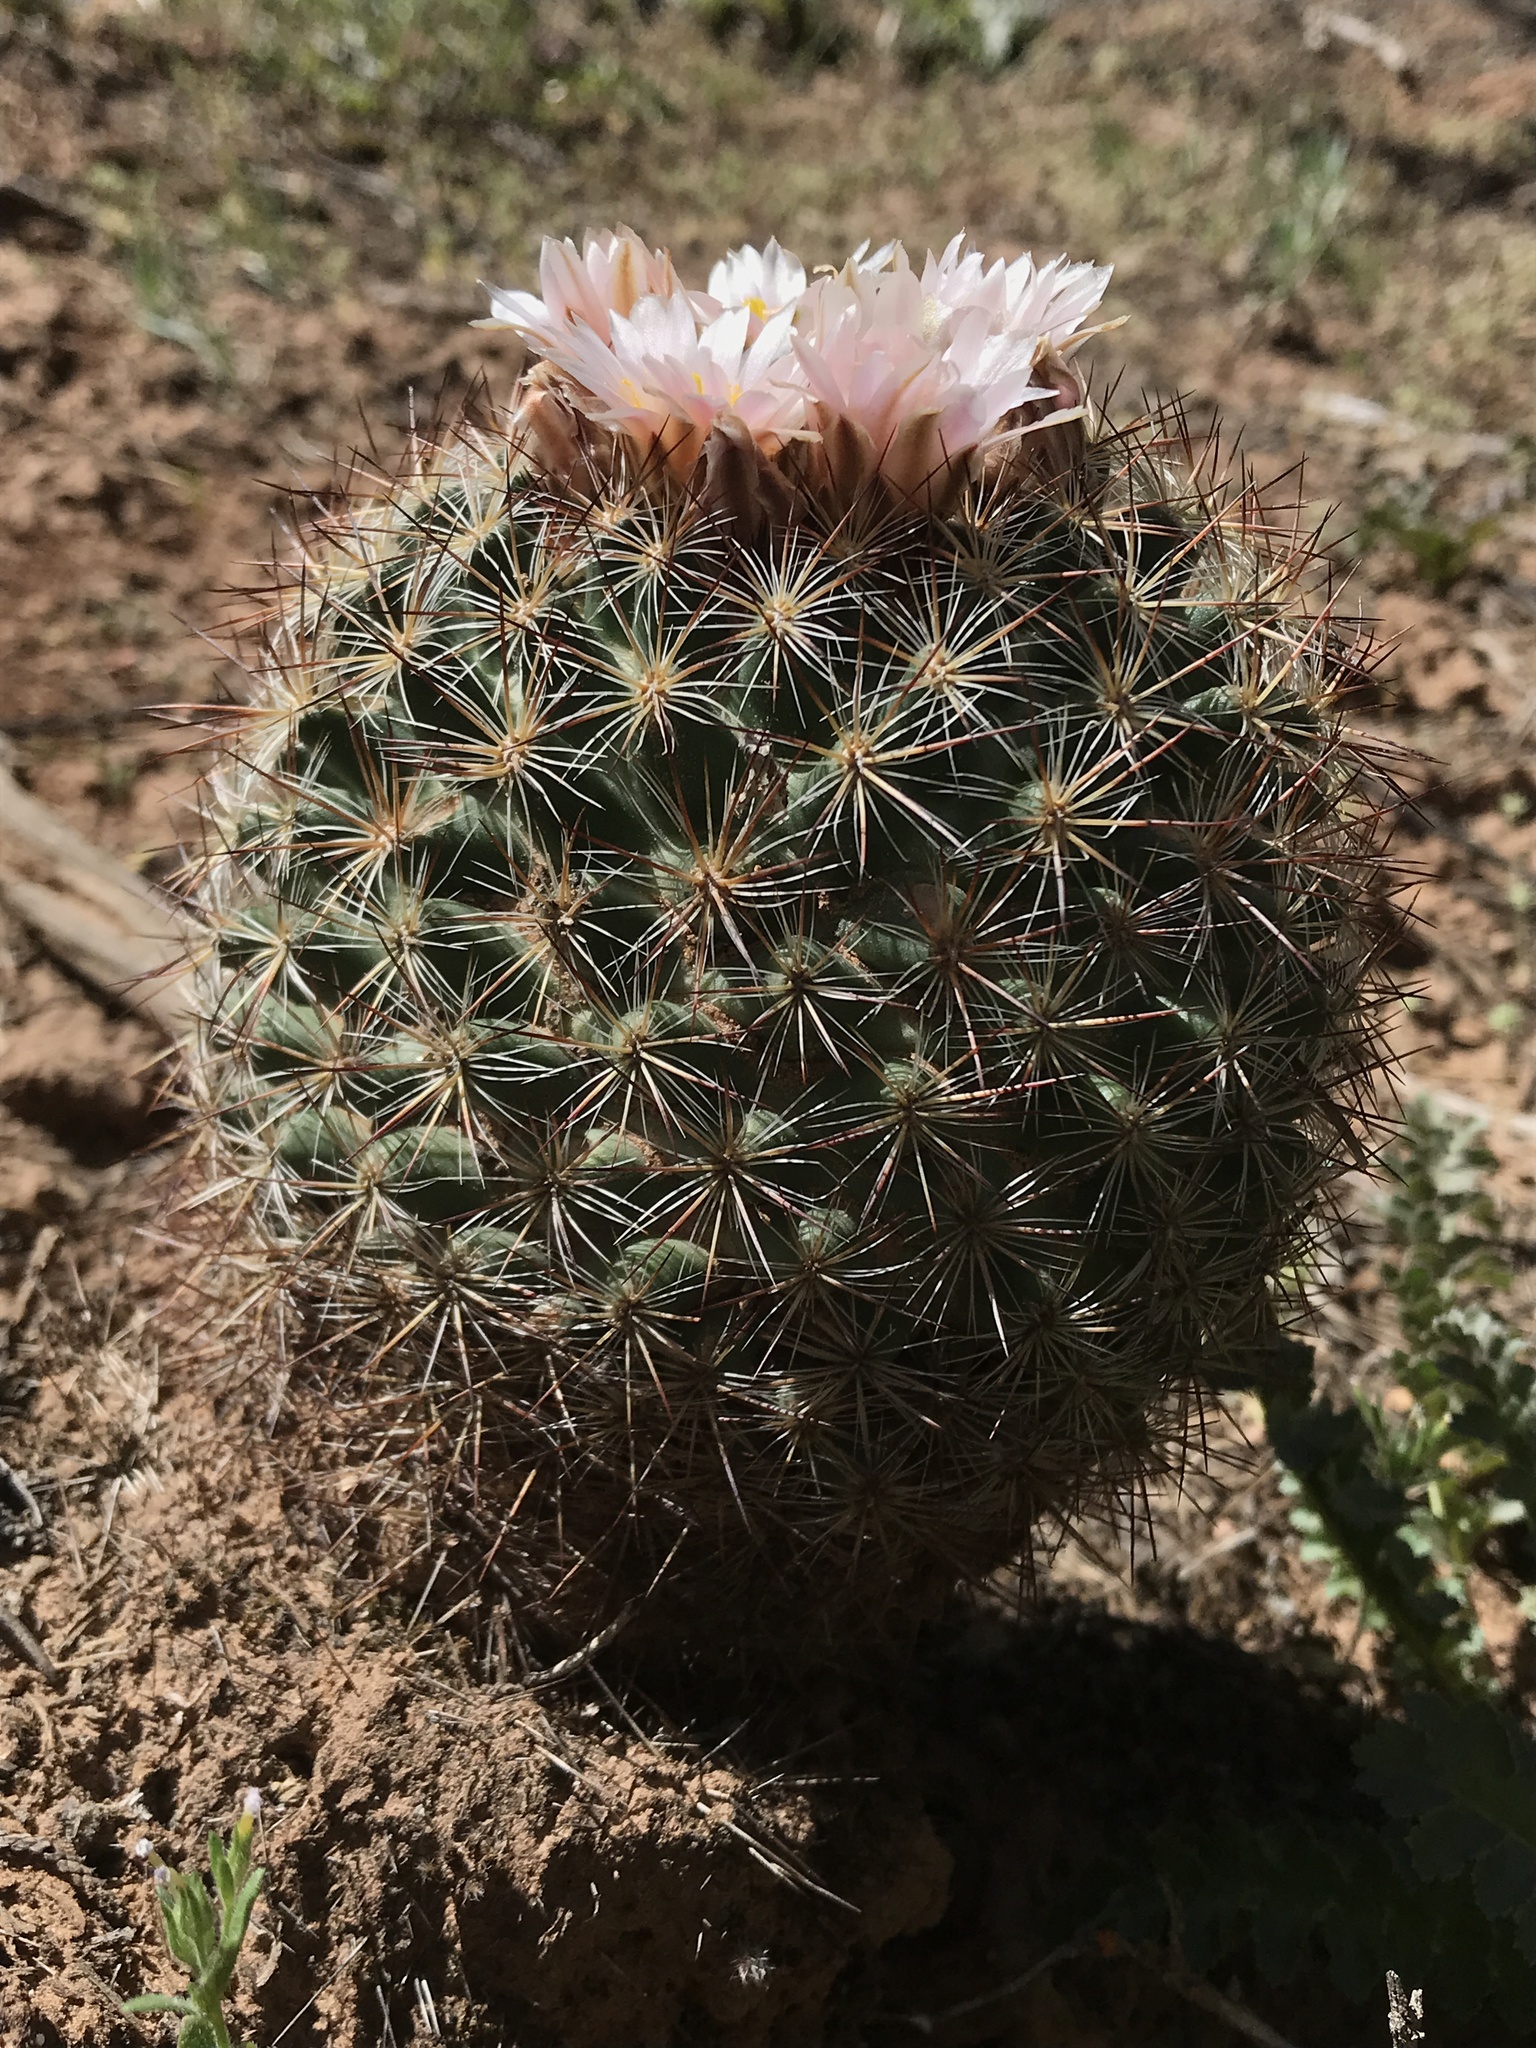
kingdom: Plantae
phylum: Tracheophyta
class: Magnoliopsida
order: Caryophyllales
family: Cactaceae
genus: Pediocactus
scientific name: Pediocactus simpsonii
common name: Simpson's hedgehog cactus
